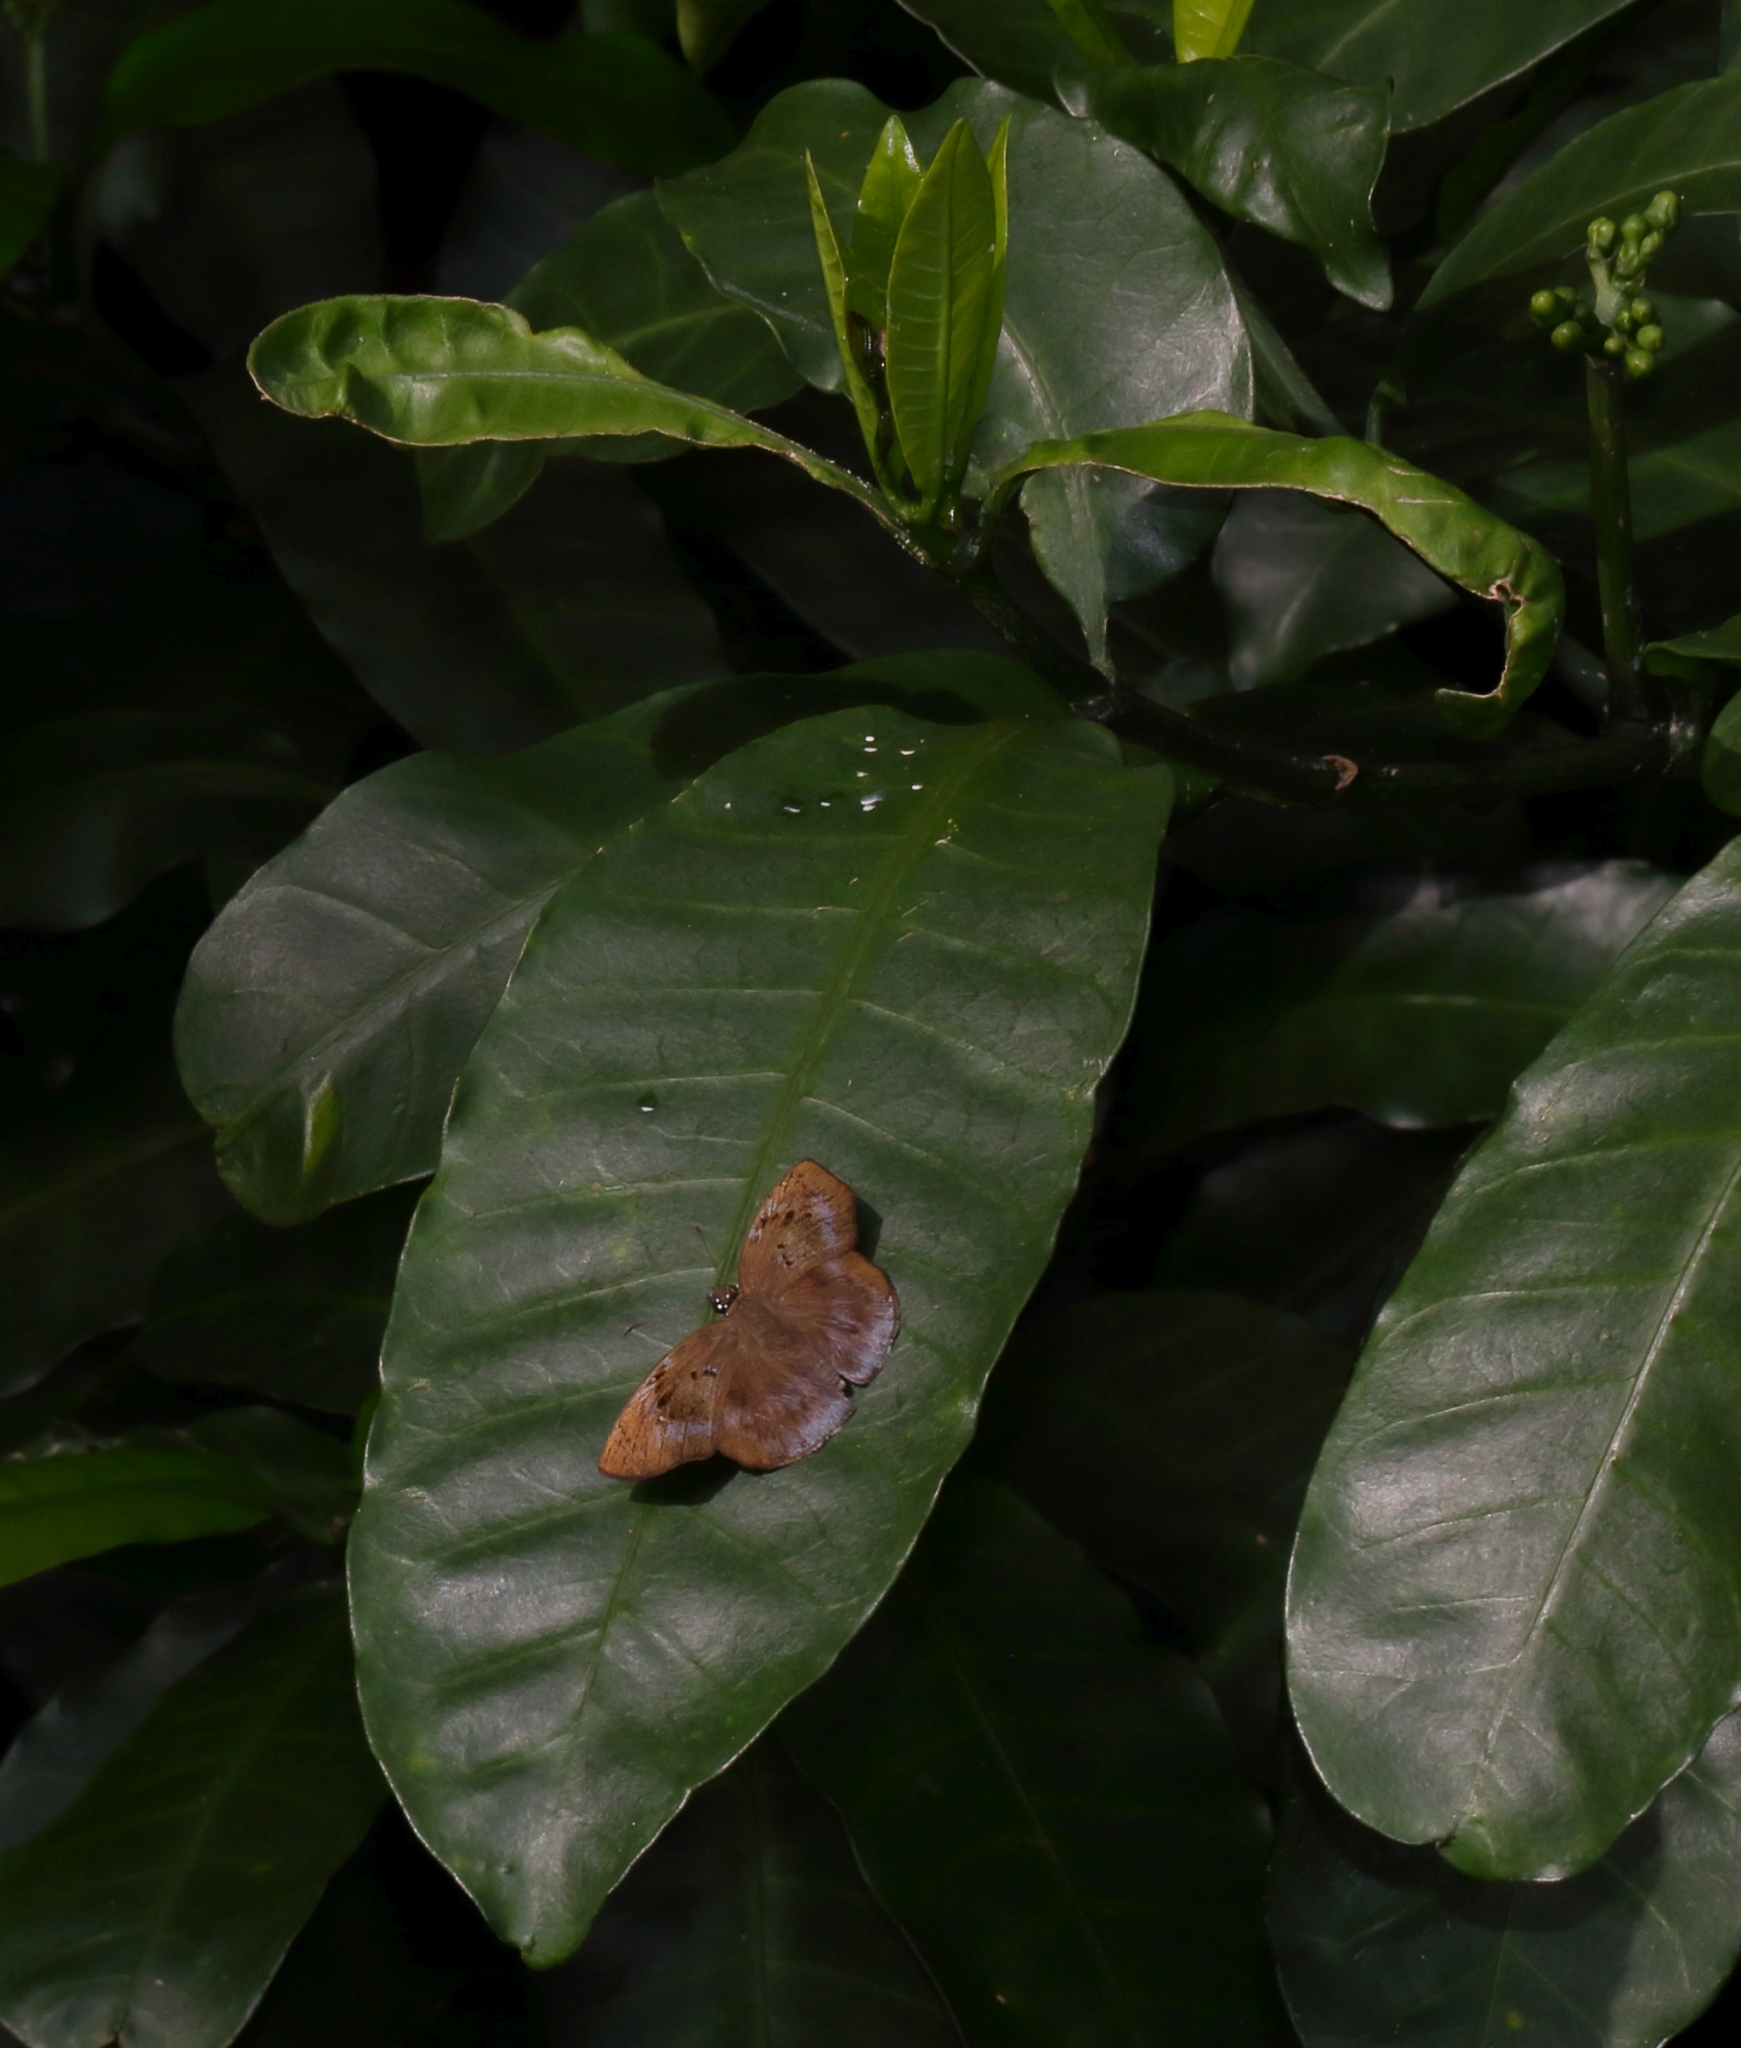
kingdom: Animalia
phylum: Arthropoda
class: Insecta
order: Lepidoptera
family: Hesperiidae
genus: Tagiades
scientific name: Tagiades flesus
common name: Clouded flat
